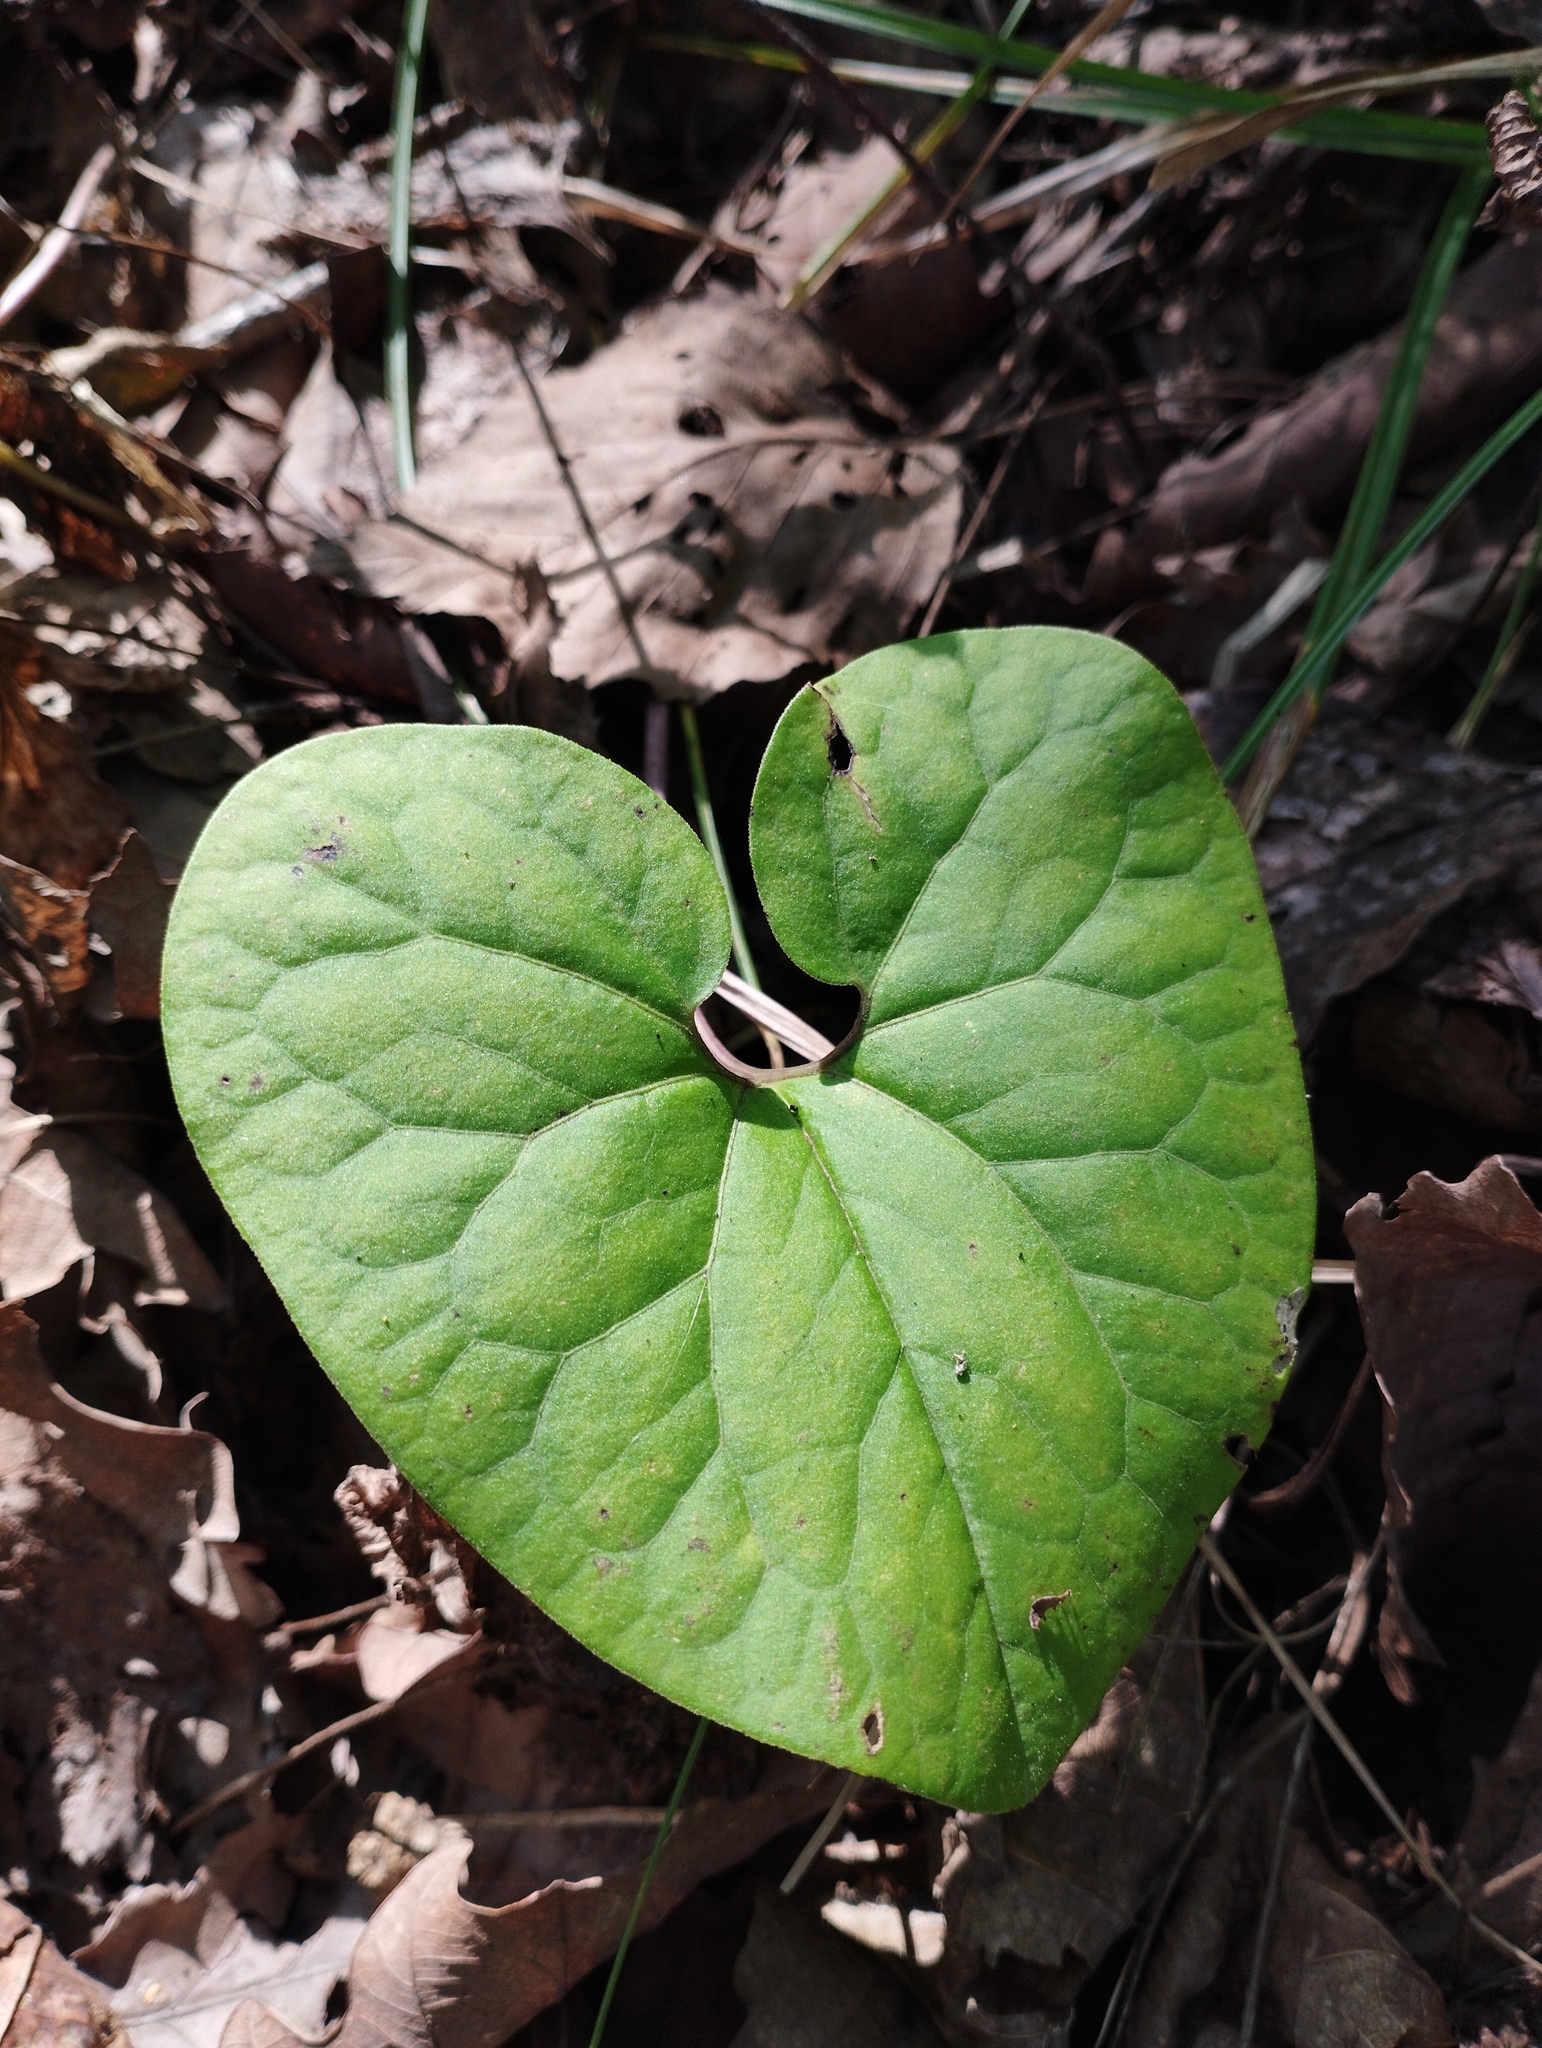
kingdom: Plantae
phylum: Tracheophyta
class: Magnoliopsida
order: Piperales
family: Aristolochiaceae
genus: Asarum
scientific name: Asarum sieboldii
